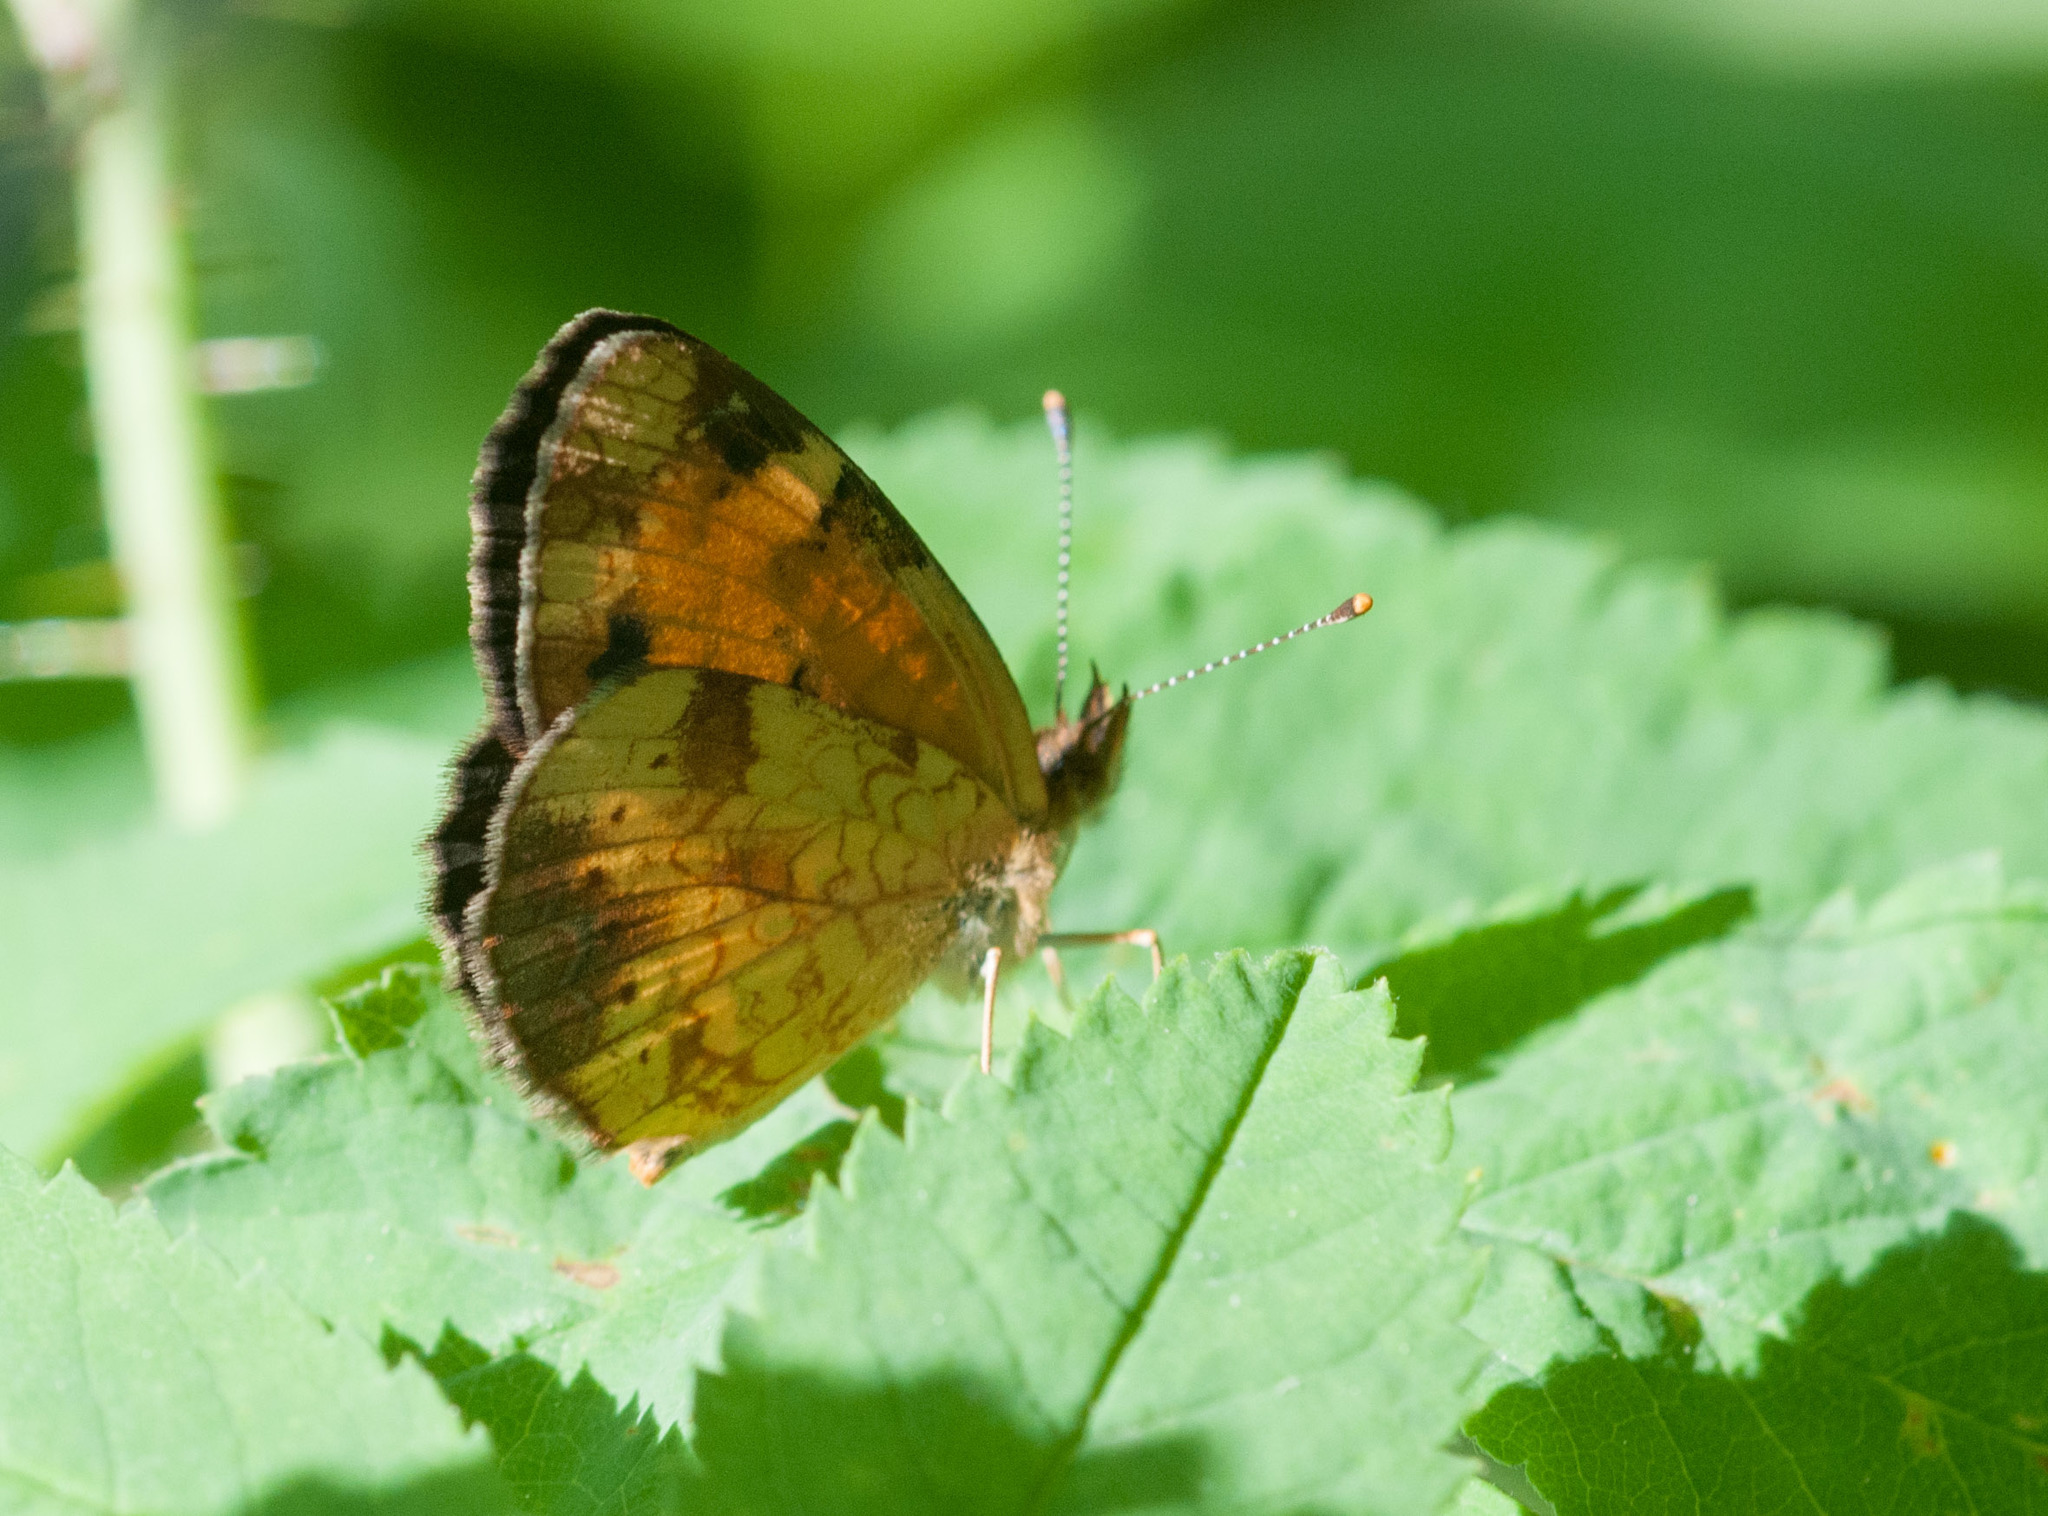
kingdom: Animalia
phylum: Arthropoda
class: Insecta
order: Lepidoptera
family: Nymphalidae
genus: Phyciodes
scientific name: Phyciodes tharos
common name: Pearl crescent
